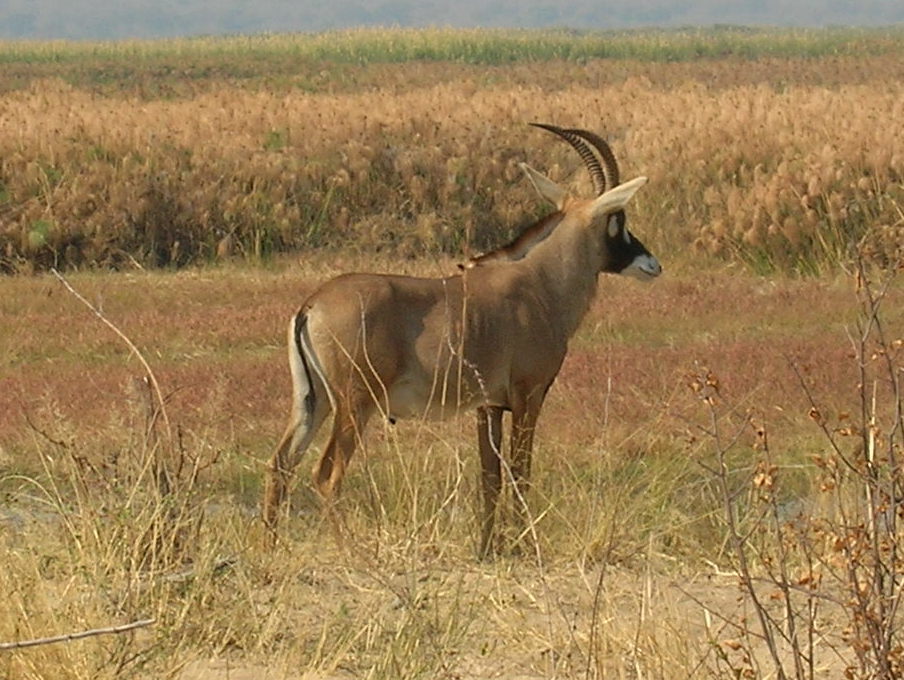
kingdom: Animalia
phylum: Chordata
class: Mammalia
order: Artiodactyla
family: Bovidae
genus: Hippotragus
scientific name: Hippotragus equinus
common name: Roan antelope
